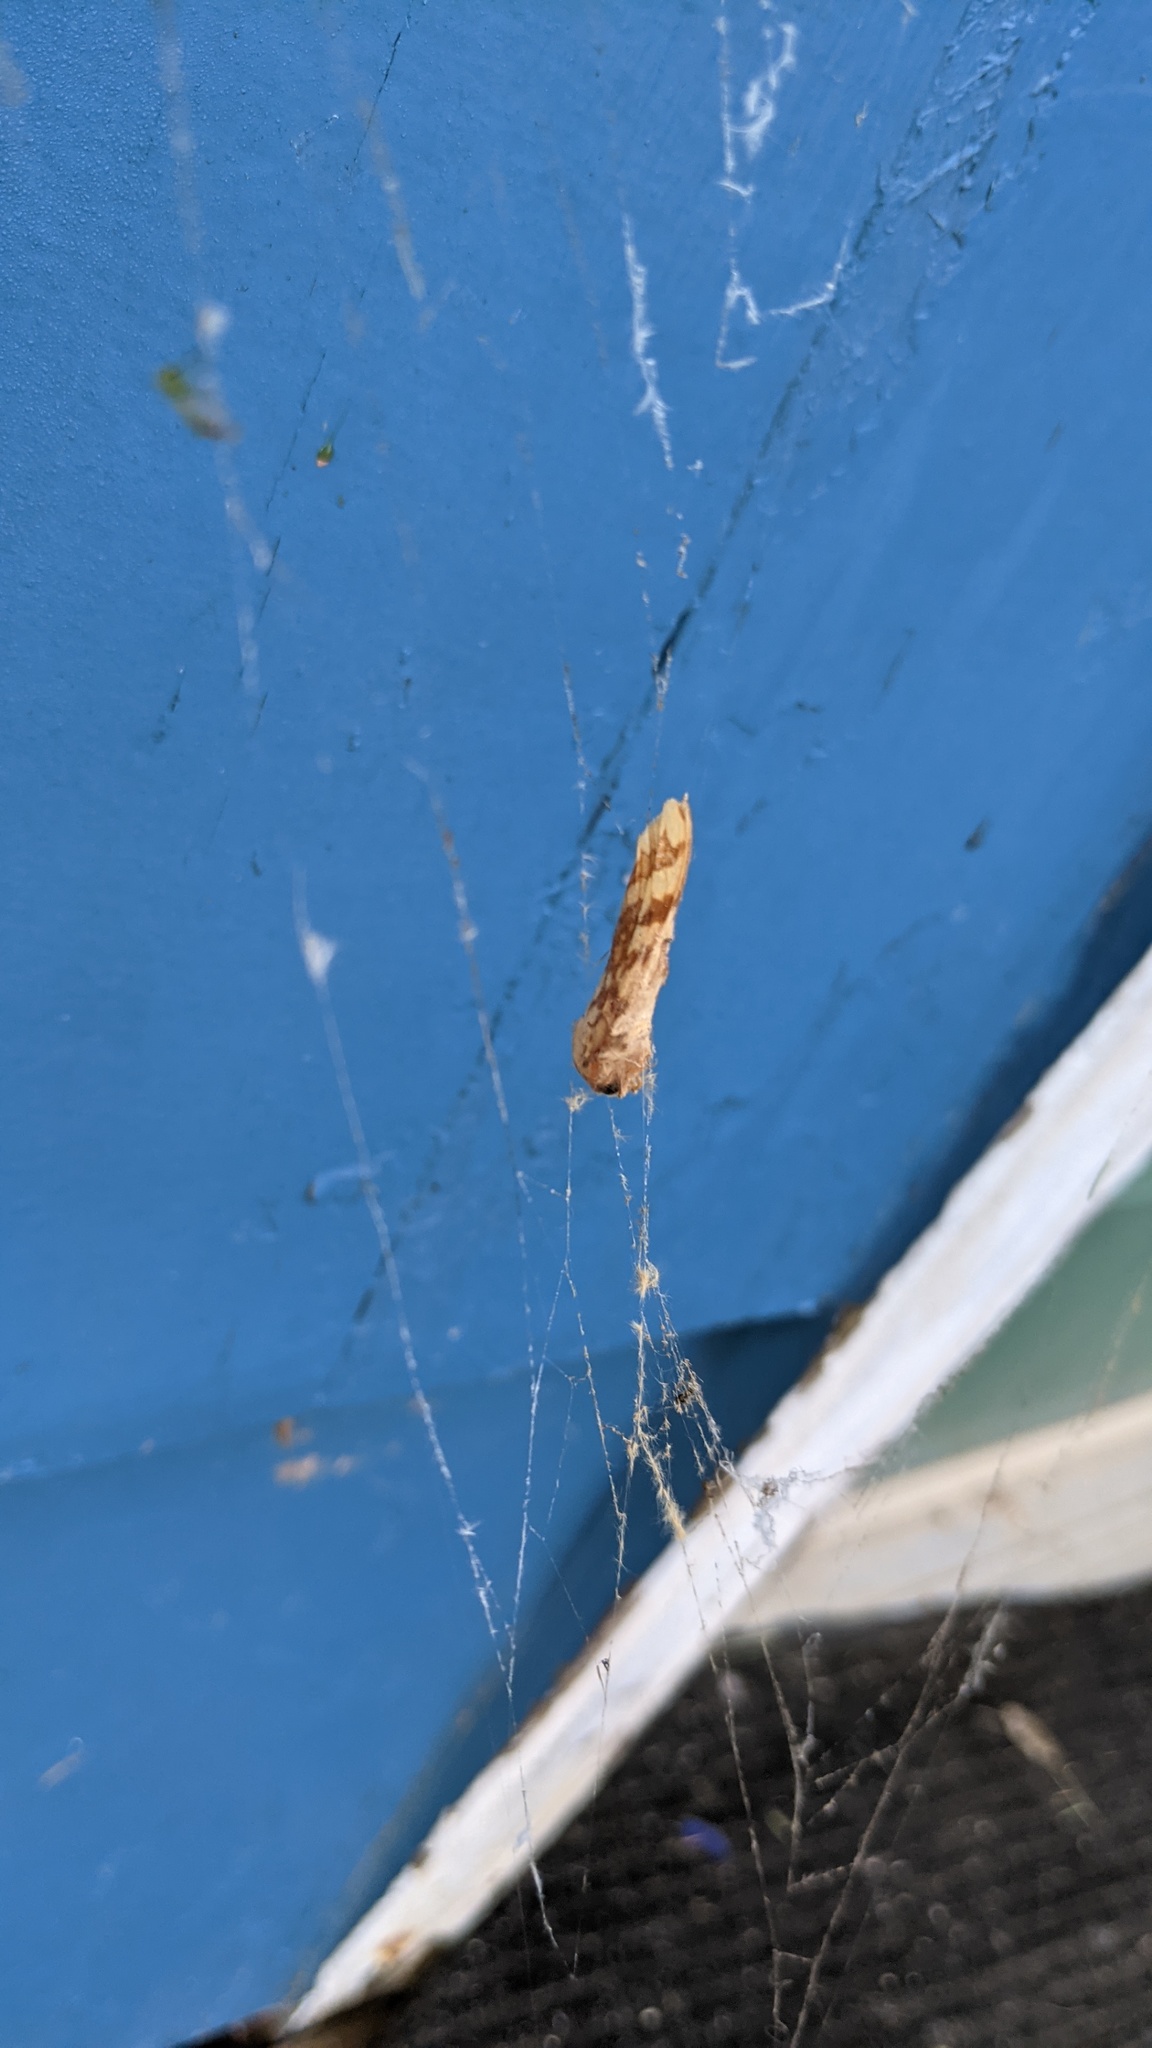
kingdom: Animalia
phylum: Arthropoda
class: Insecta
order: Lepidoptera
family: Erebidae
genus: Lophocampa
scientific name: Lophocampa maculata
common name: Spotted tussock moth
